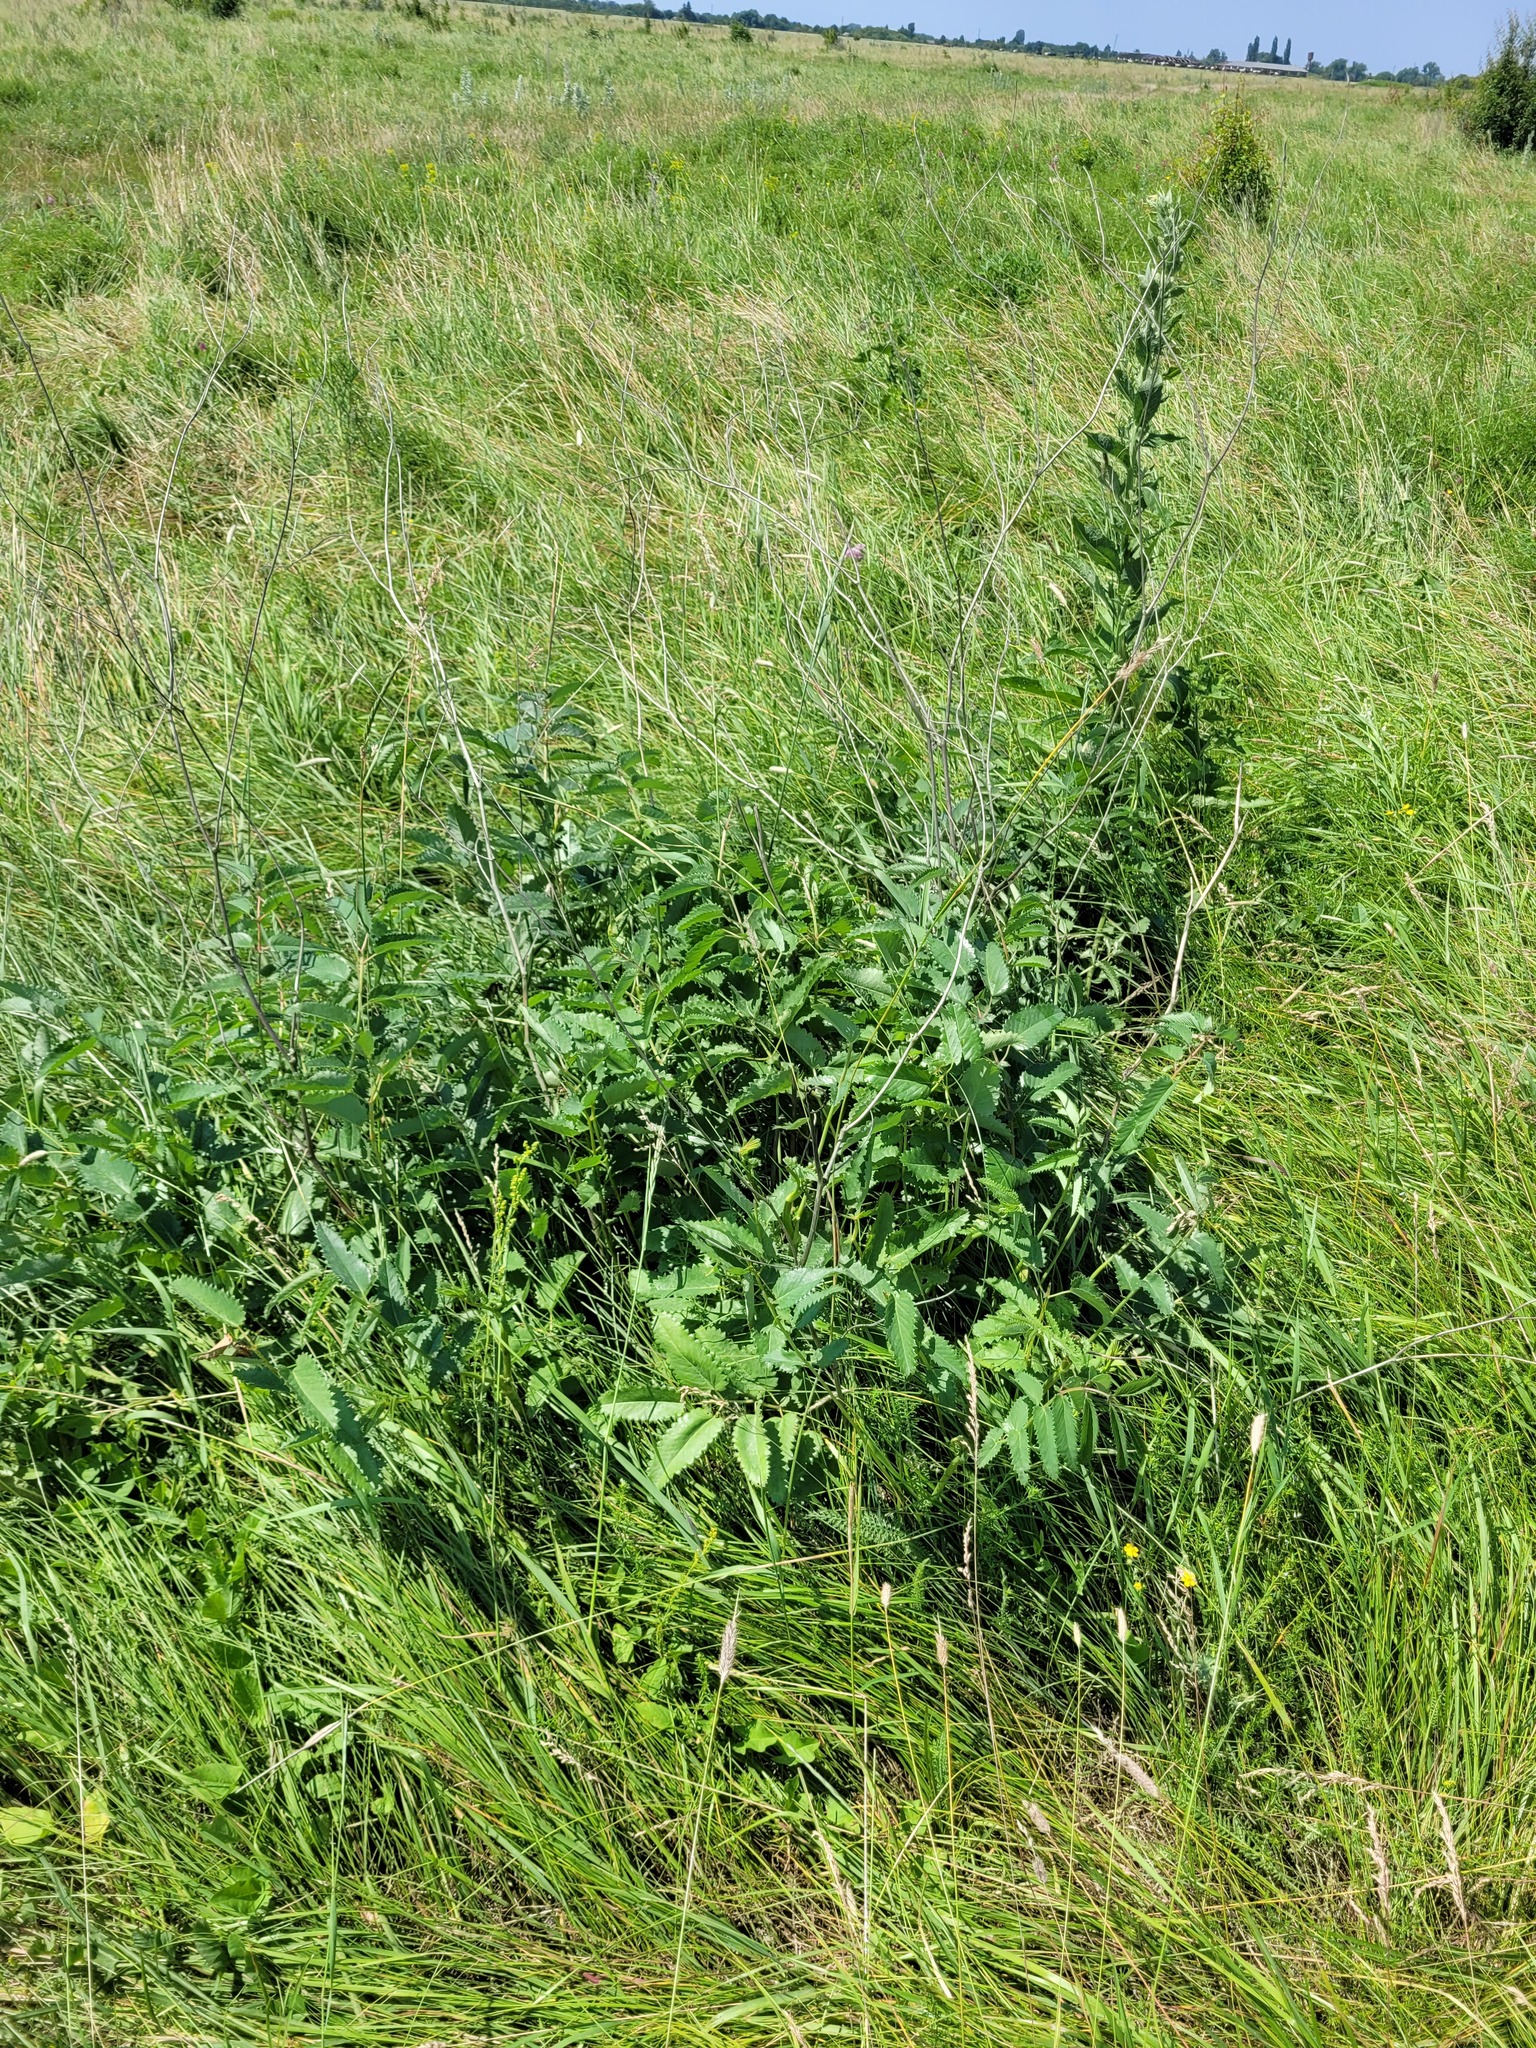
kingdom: Plantae
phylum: Tracheophyta
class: Magnoliopsida
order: Rosales
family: Rosaceae
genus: Sanguisorba
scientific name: Sanguisorba officinalis
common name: Great burnet
